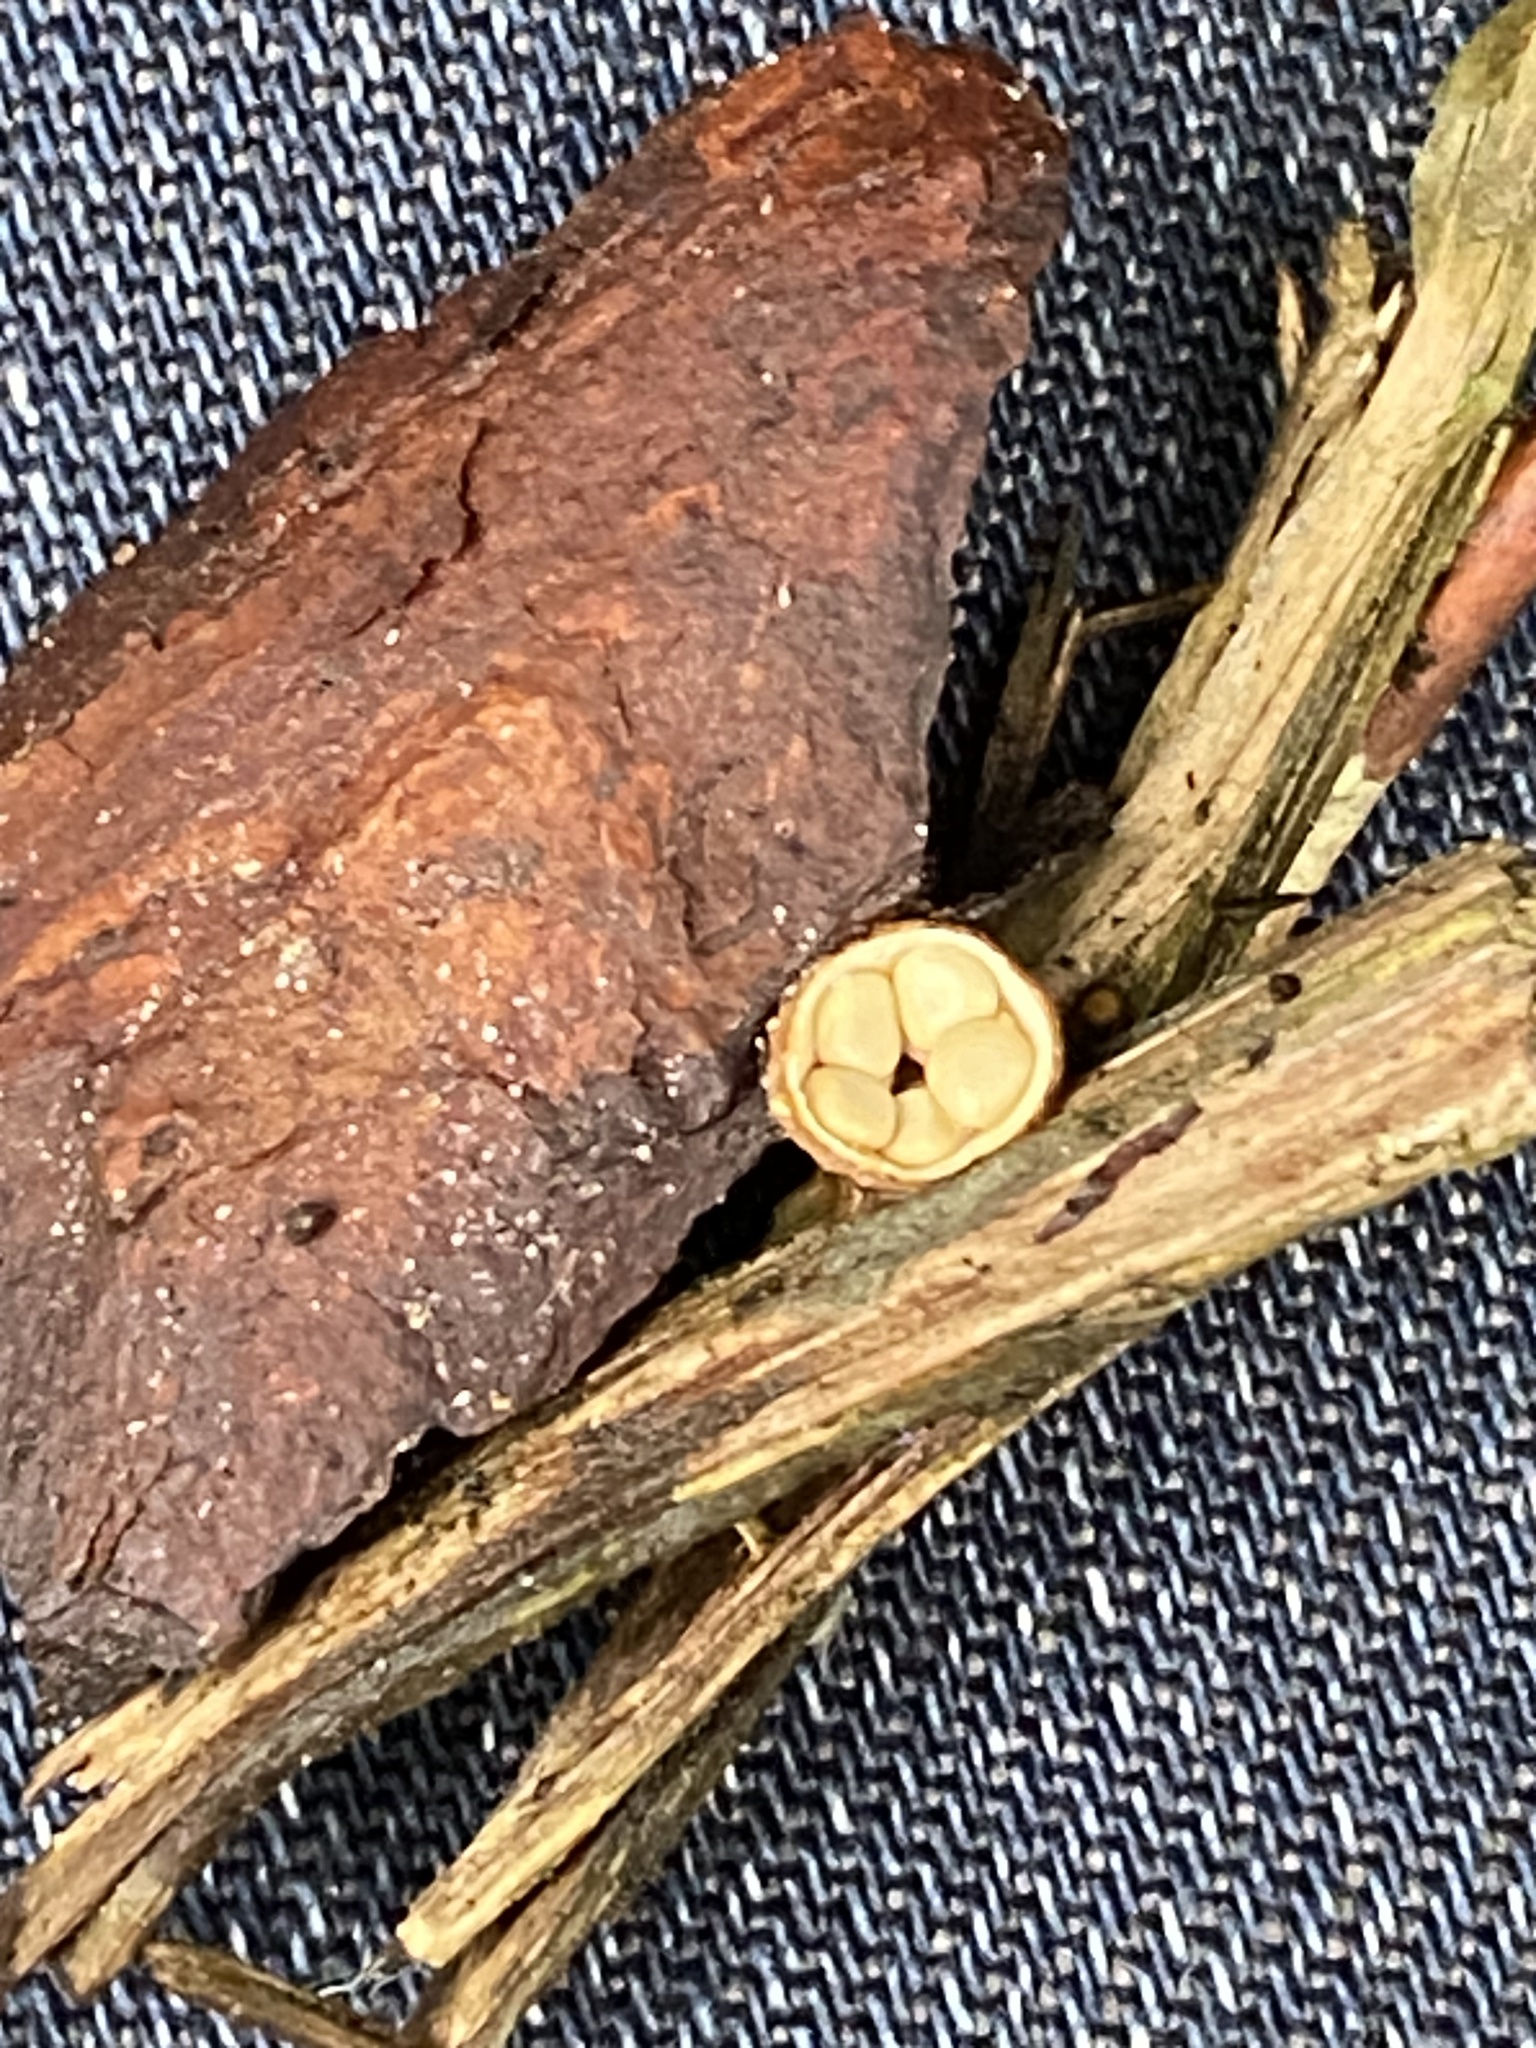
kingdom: Fungi
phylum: Basidiomycota
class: Agaricomycetes
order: Agaricales
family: Nidulariaceae
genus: Crucibulum
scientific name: Crucibulum laeve
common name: Common bird's nest
